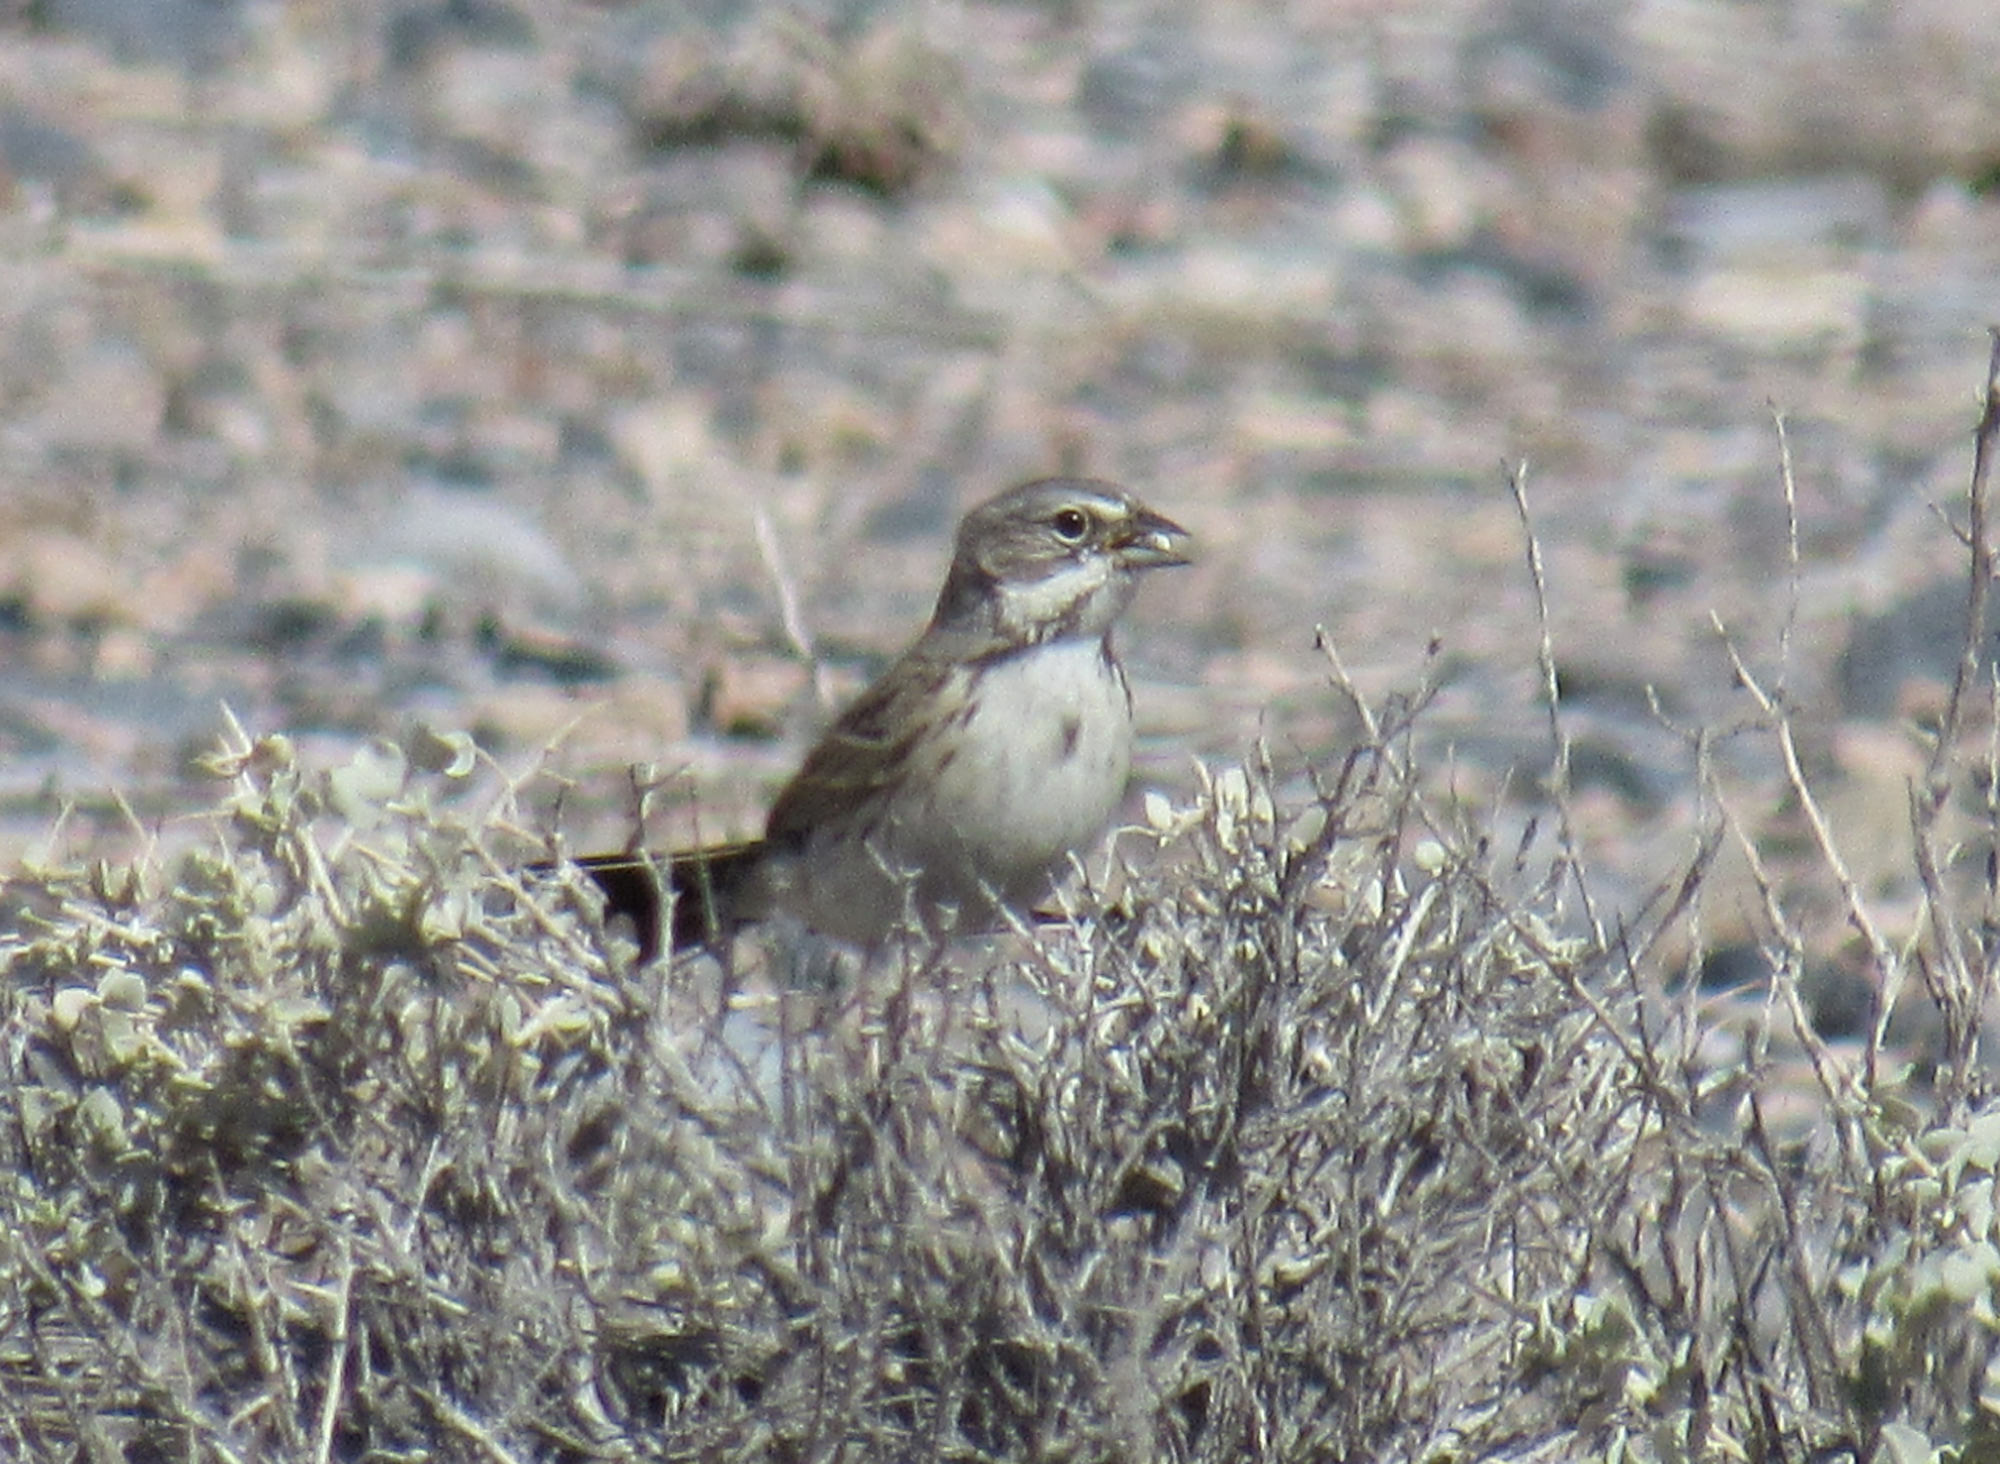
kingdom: Animalia
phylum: Chordata
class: Aves
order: Passeriformes
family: Passerellidae
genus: Artemisiospiza
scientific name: Artemisiospiza nevadensis
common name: Sagebrush sparrow
